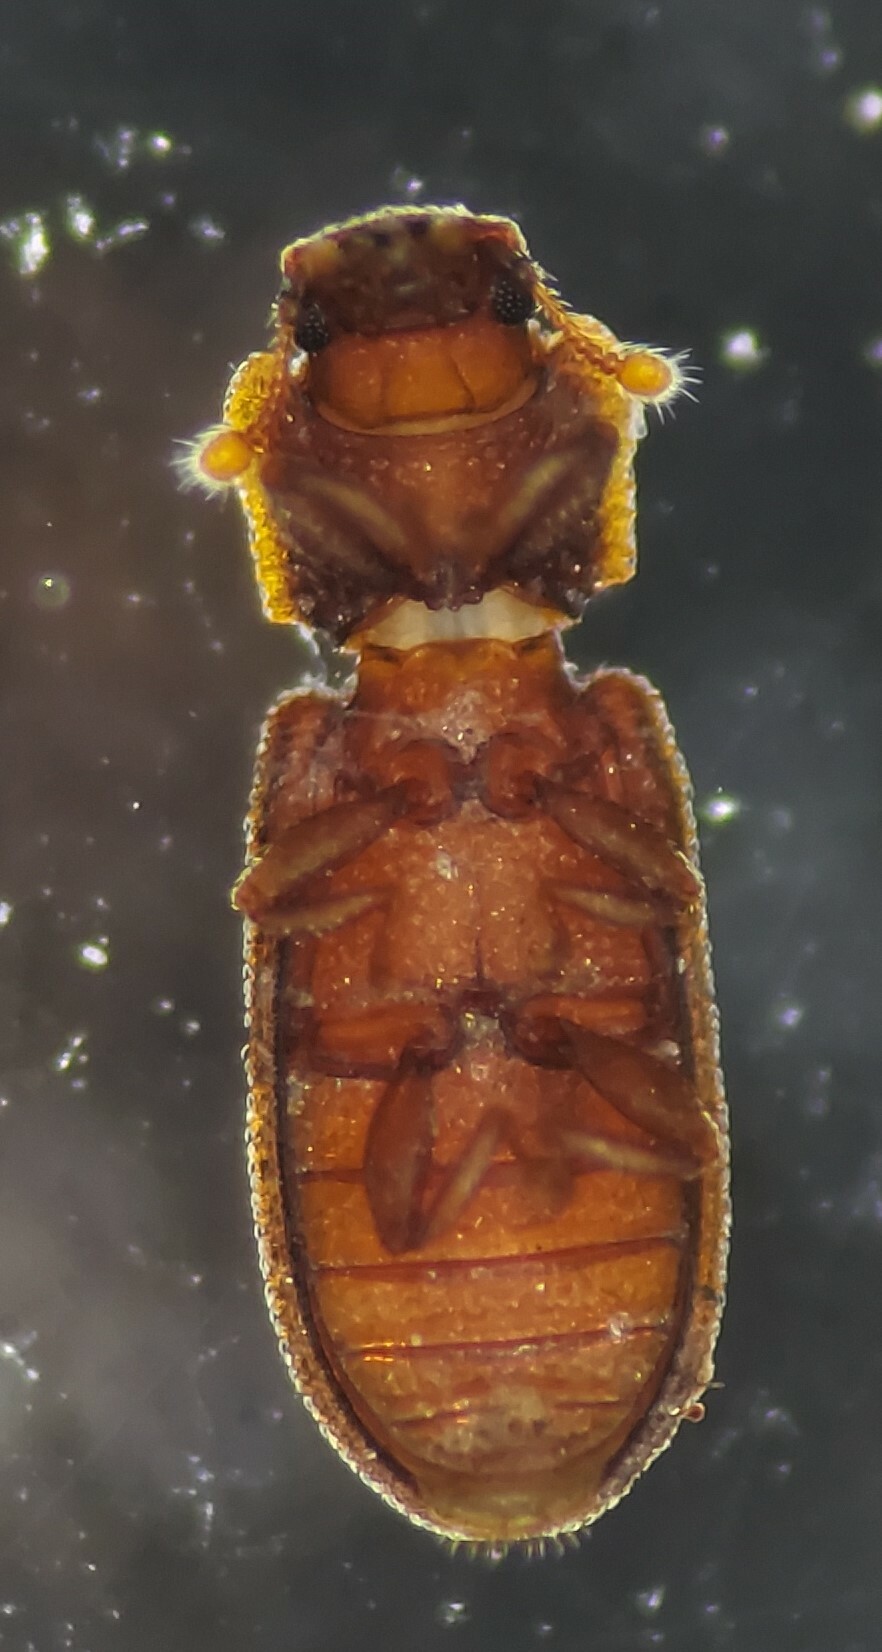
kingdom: Animalia
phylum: Arthropoda
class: Insecta
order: Coleoptera
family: Zopheridae
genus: Paha
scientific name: Paha laticollis
